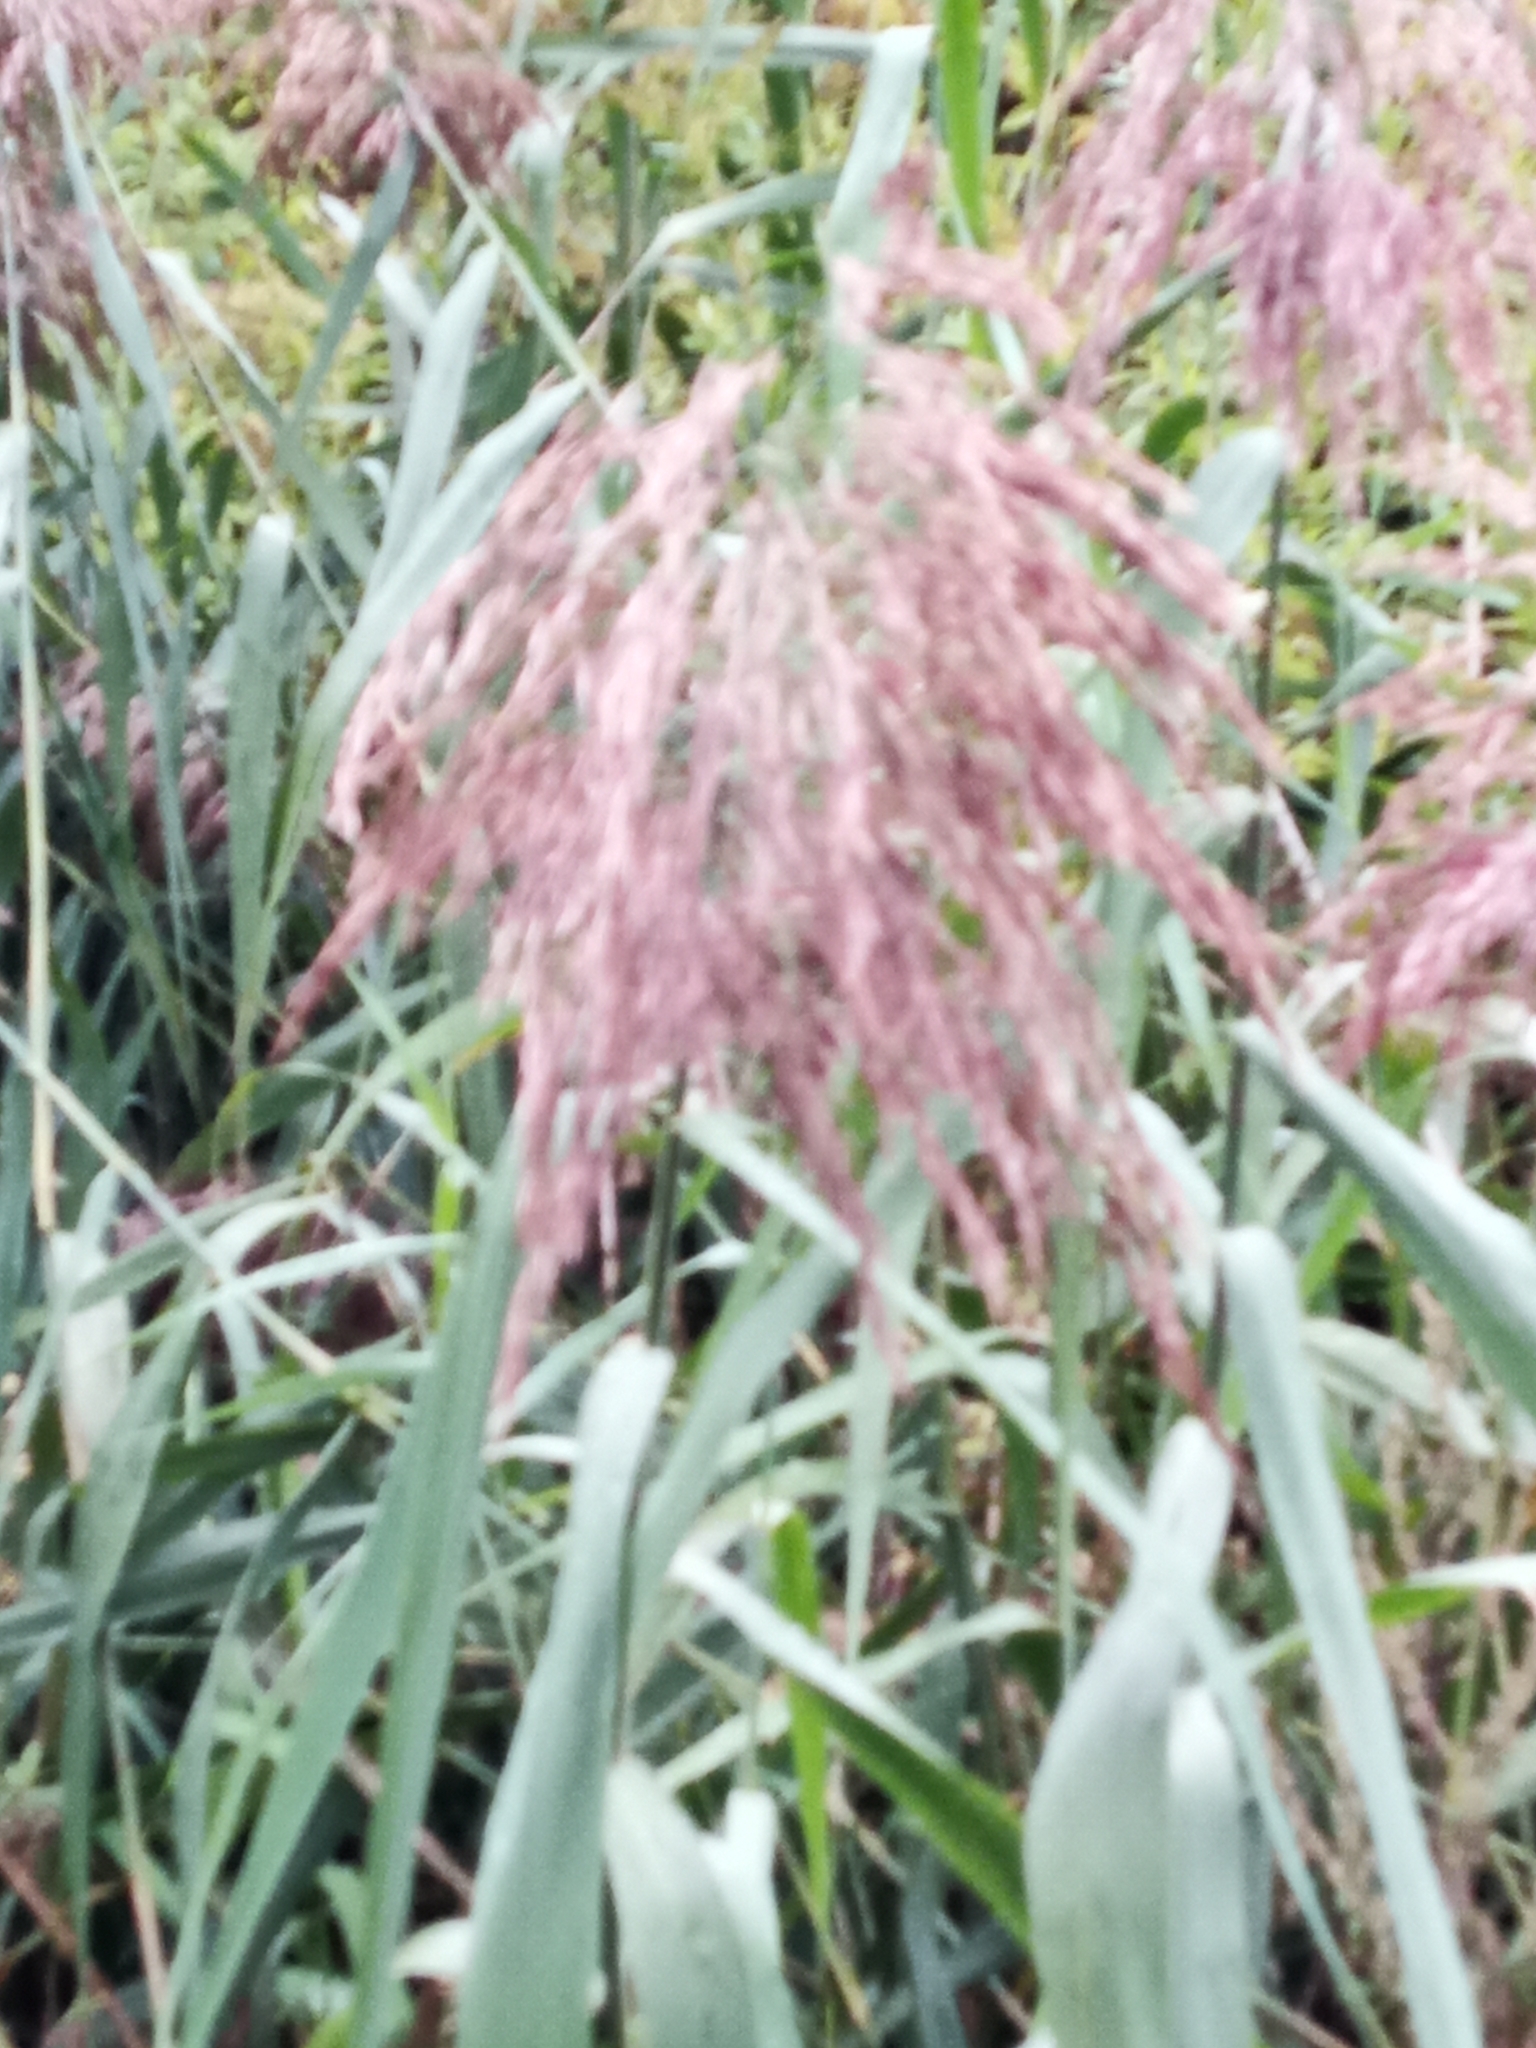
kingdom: Plantae
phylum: Tracheophyta
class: Liliopsida
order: Poales
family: Poaceae
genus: Phragmites
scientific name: Phragmites australis
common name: Common reed
